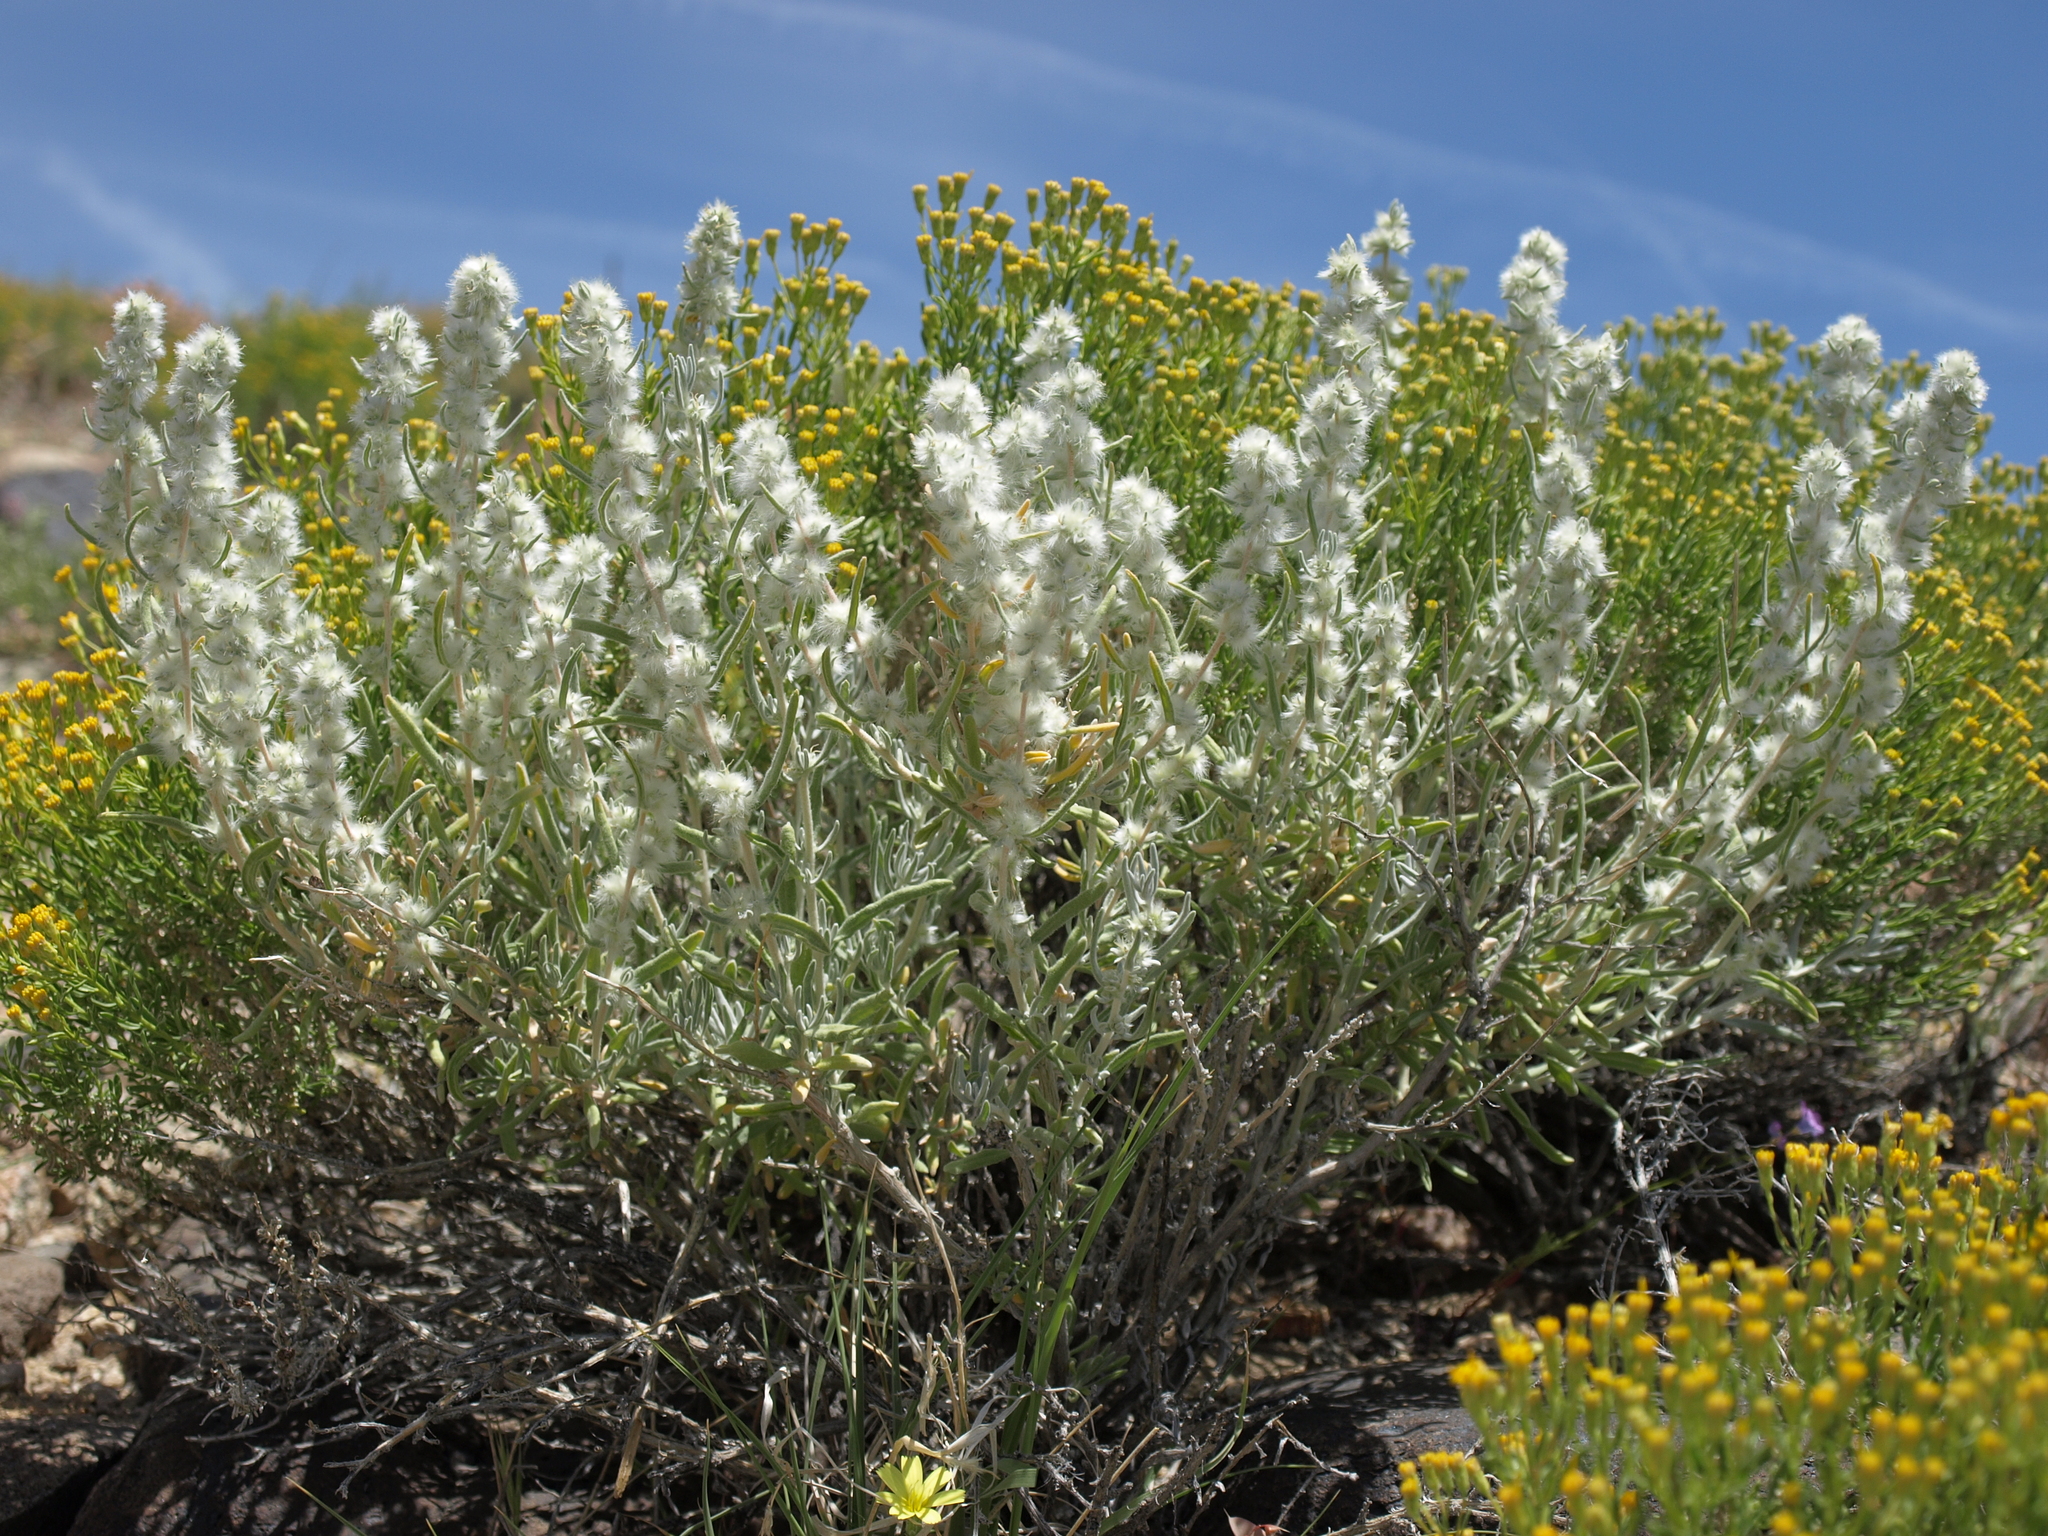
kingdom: Plantae
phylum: Tracheophyta
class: Magnoliopsida
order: Caryophyllales
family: Amaranthaceae
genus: Krascheninnikovia
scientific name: Krascheninnikovia lanata
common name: Winterfat
